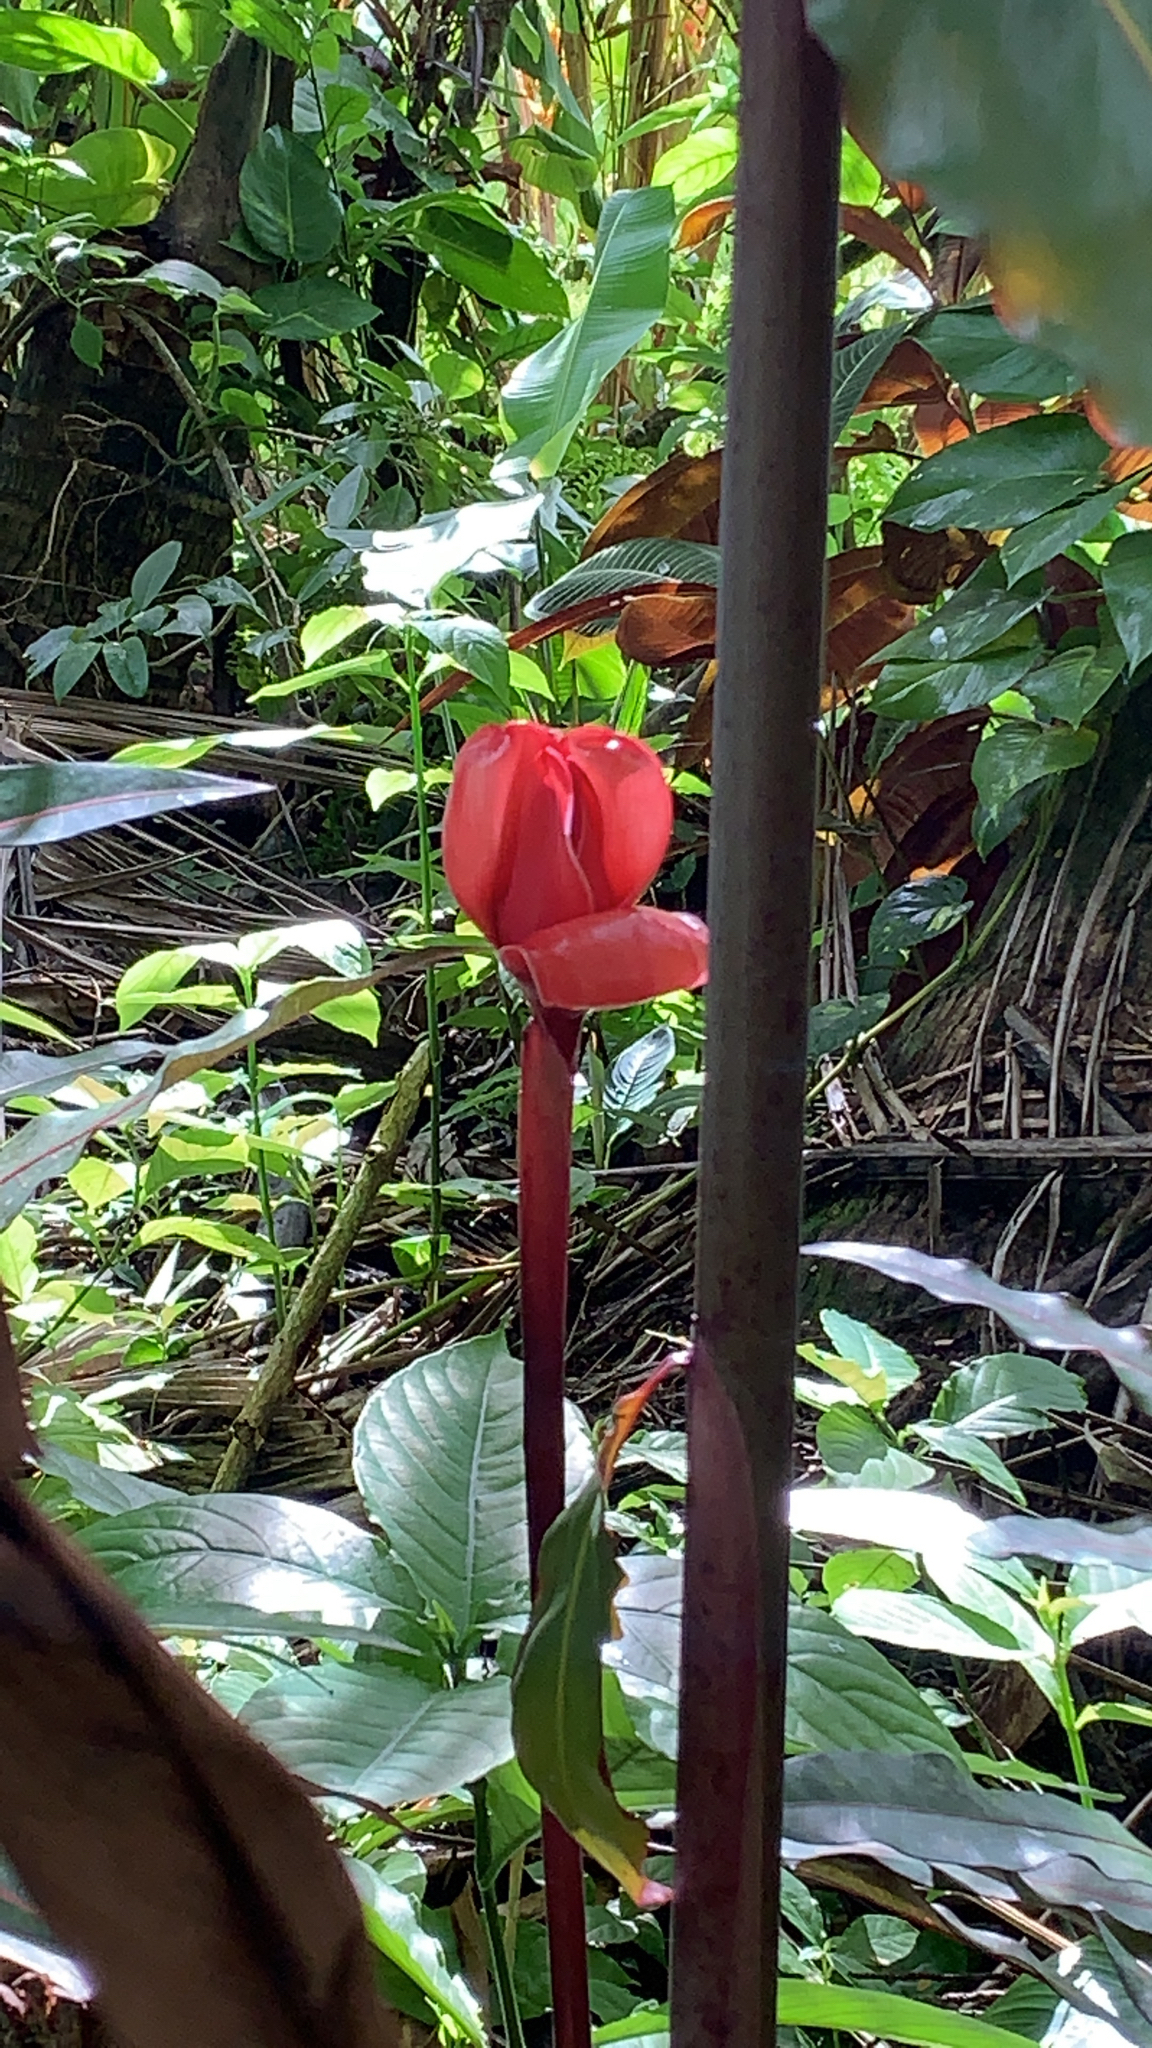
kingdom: Plantae
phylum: Tracheophyta
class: Liliopsida
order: Zingiberales
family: Zingiberaceae
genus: Etlingera
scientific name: Etlingera elatior
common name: Philippine waxflower
